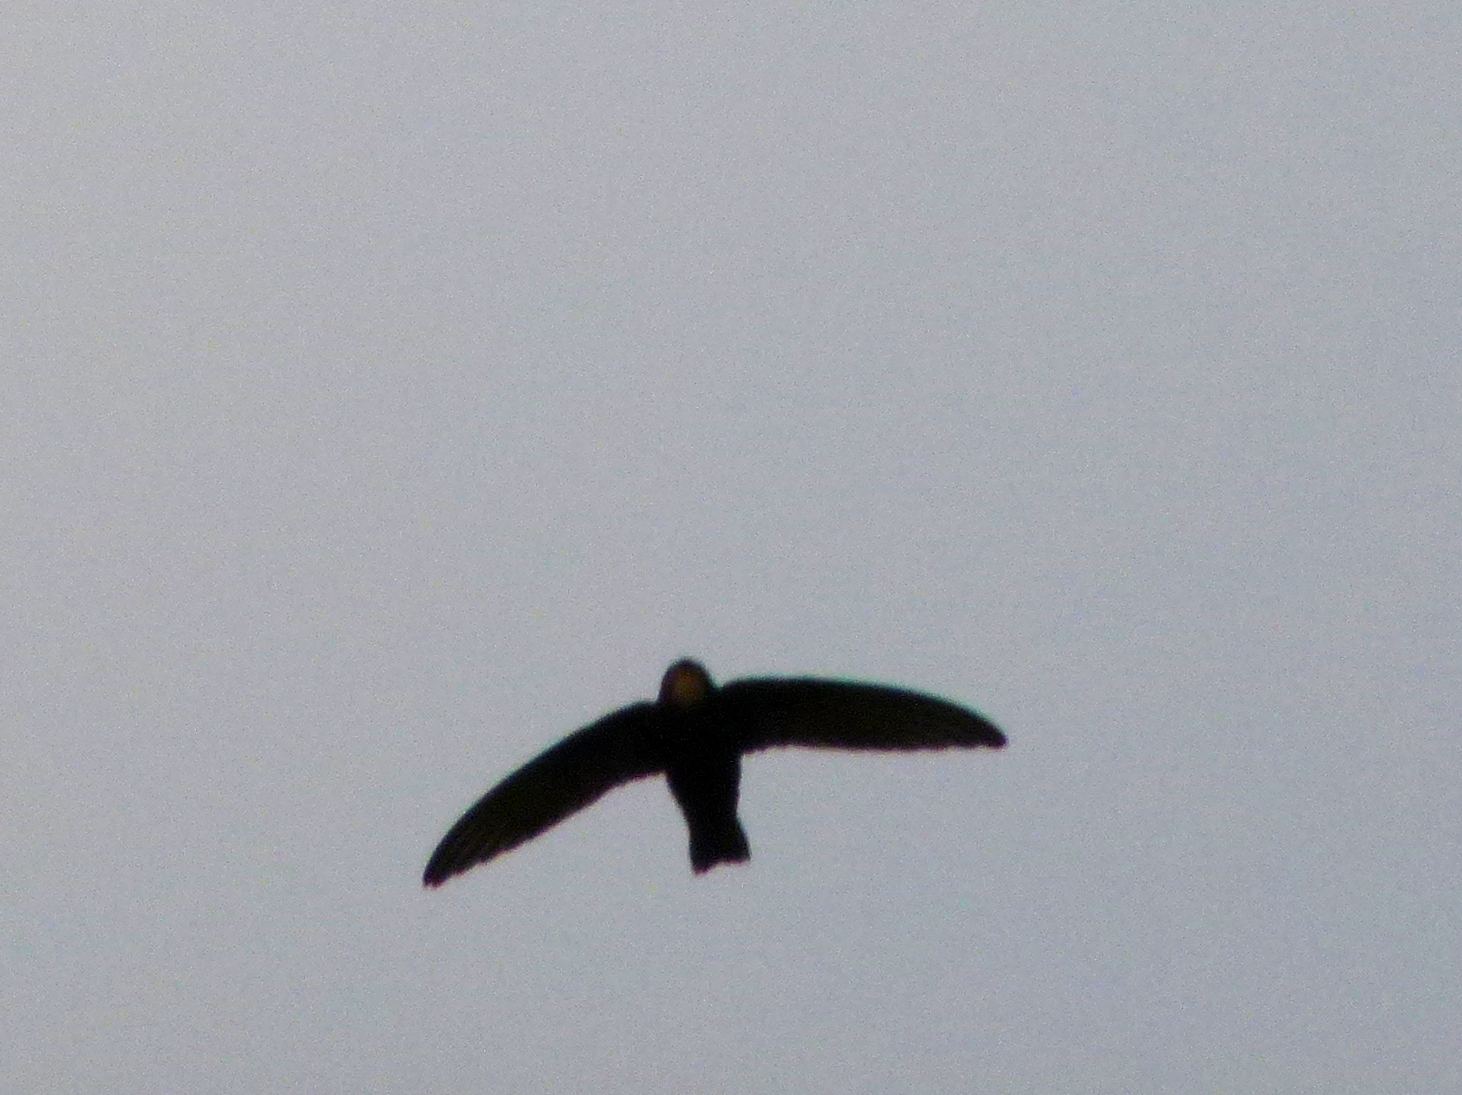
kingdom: Animalia
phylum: Chordata
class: Aves
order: Apodiformes
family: Apodidae
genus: Apus
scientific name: Apus affinis
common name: Little swift
